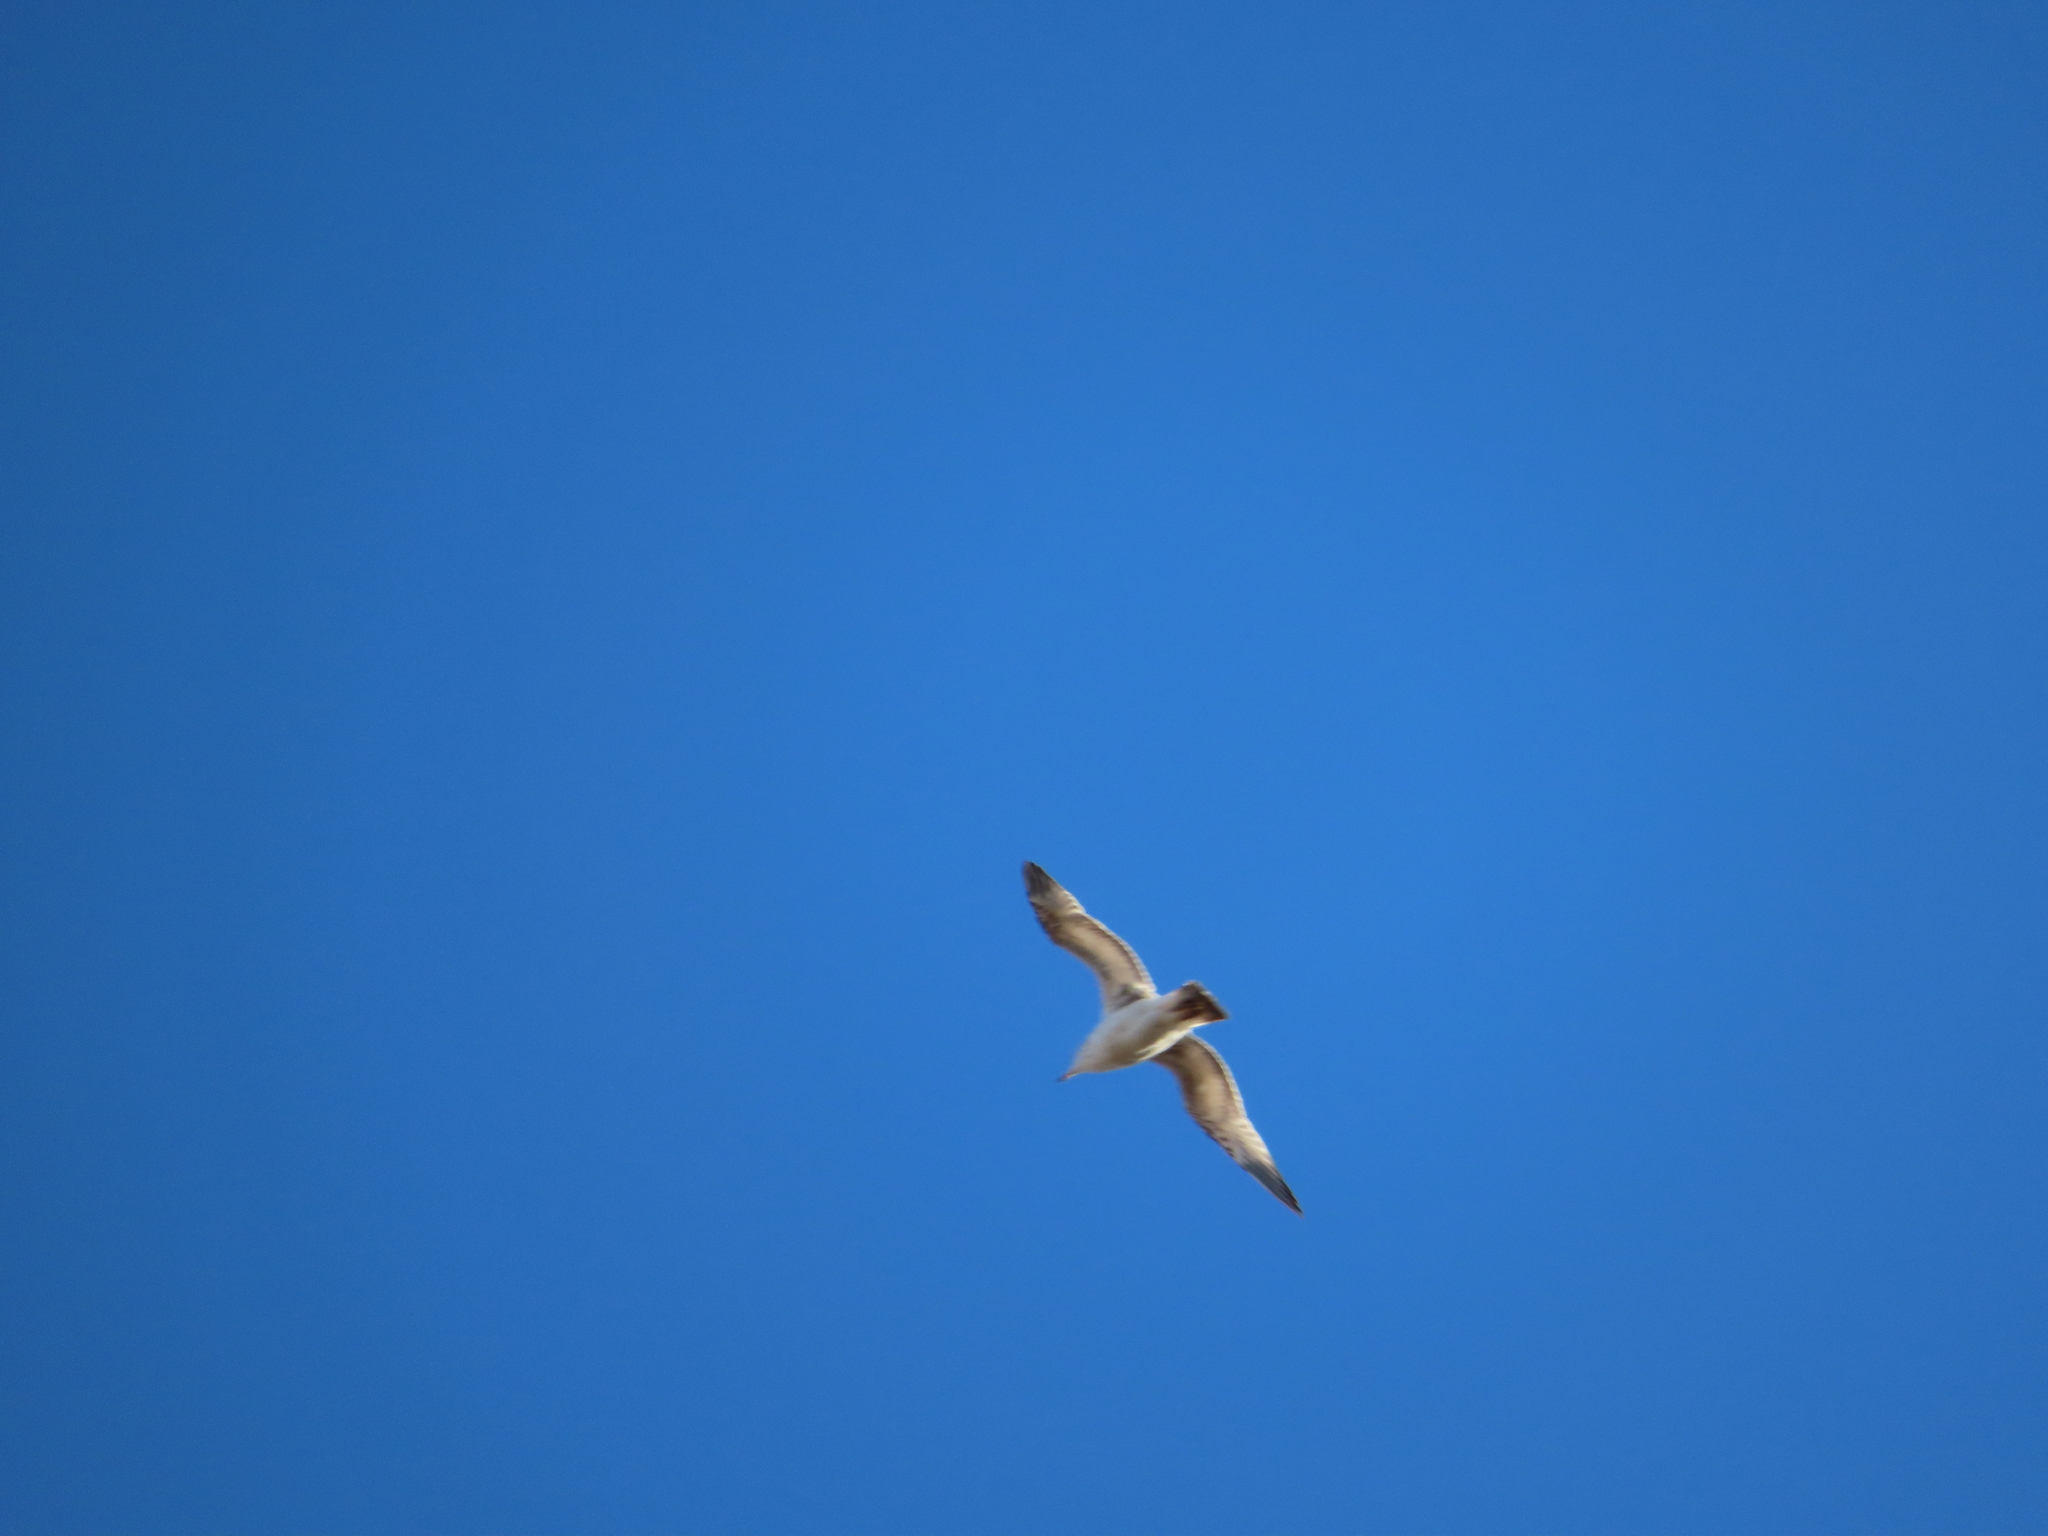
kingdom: Animalia
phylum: Chordata
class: Aves
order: Charadriiformes
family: Laridae
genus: Larus
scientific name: Larus delawarensis
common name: Ring-billed gull
